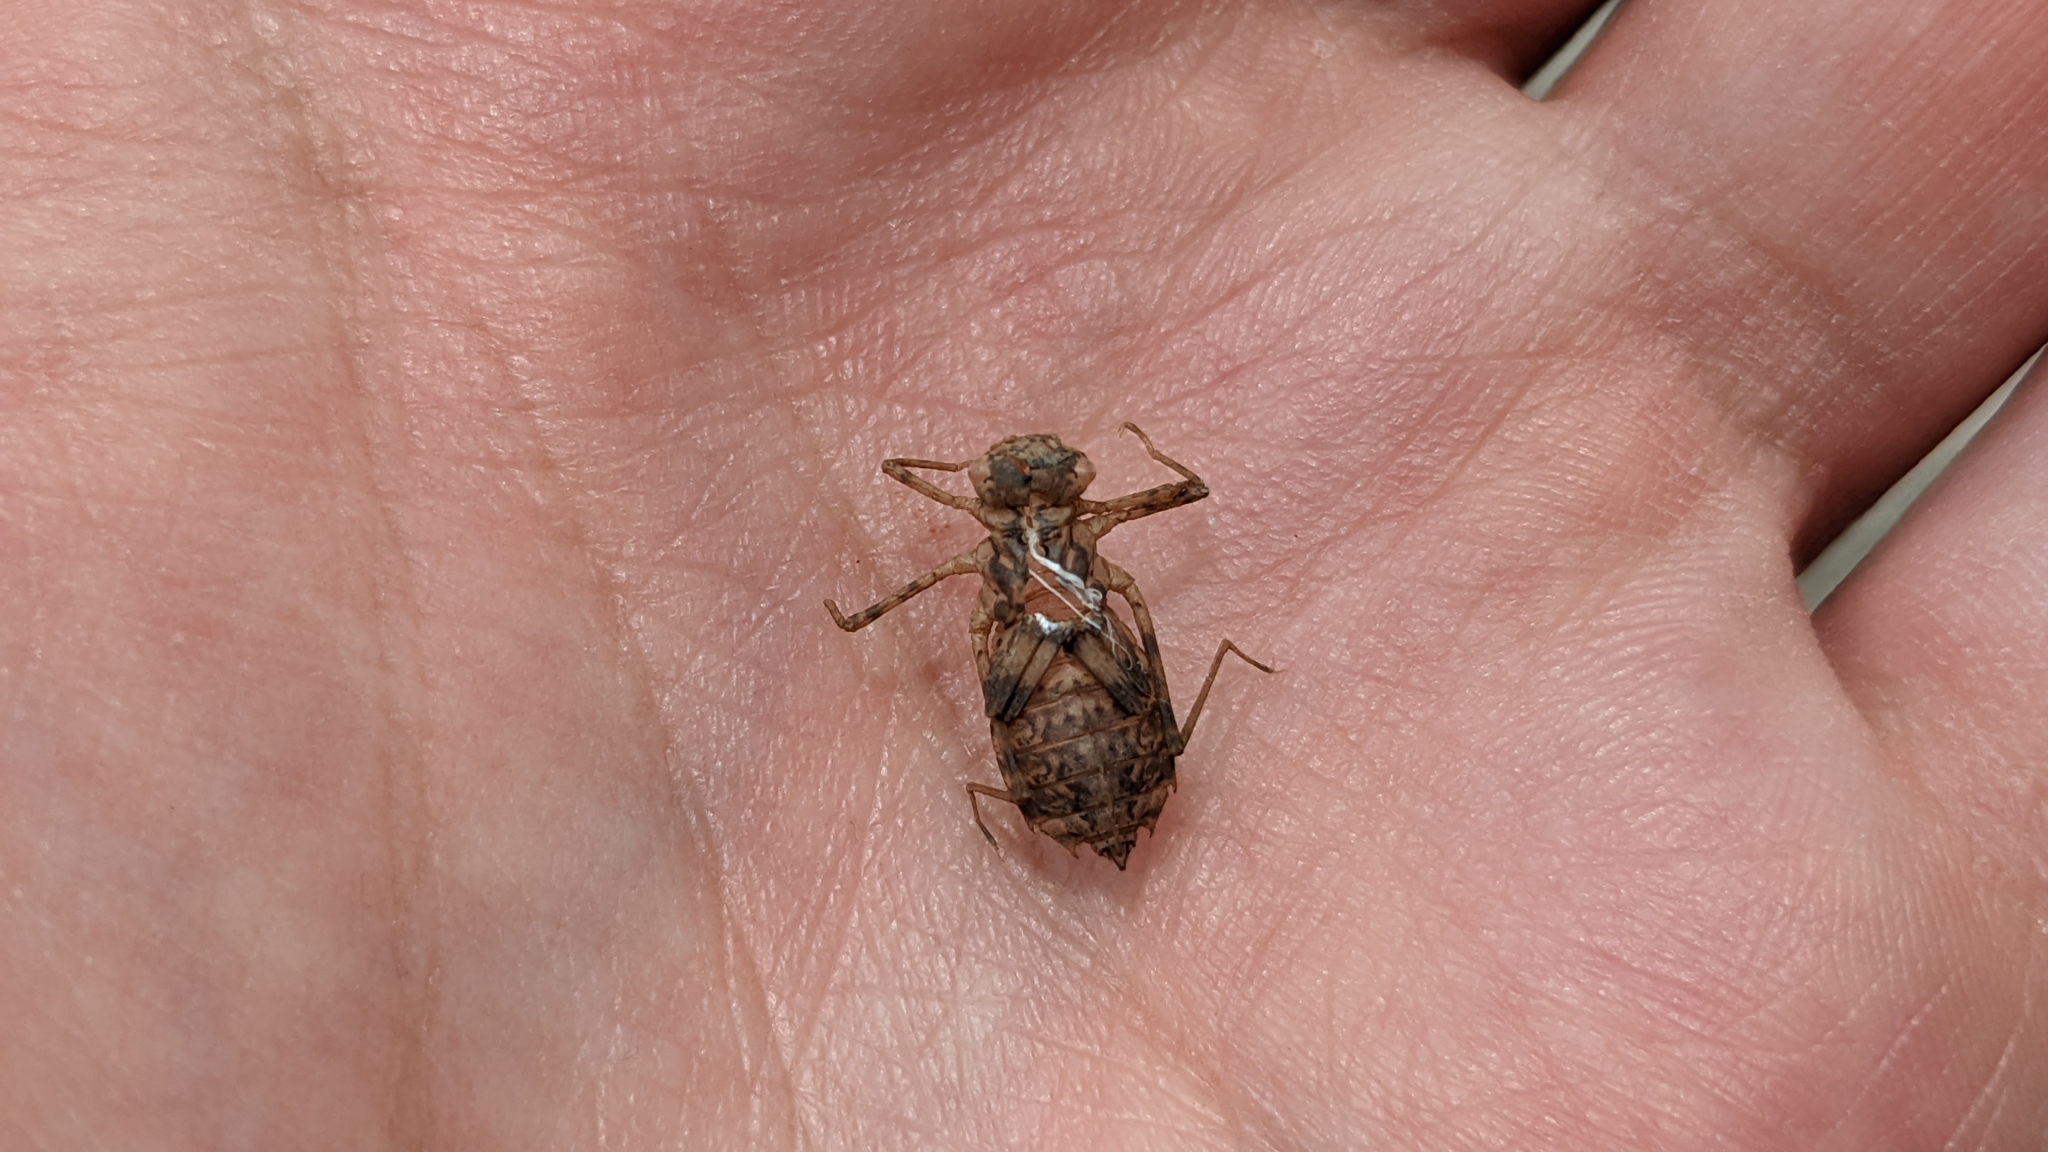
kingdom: Animalia
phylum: Arthropoda
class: Insecta
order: Odonata
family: Libellulidae
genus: Perithemis
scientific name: Perithemis tenera
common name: Eastern amberwing
